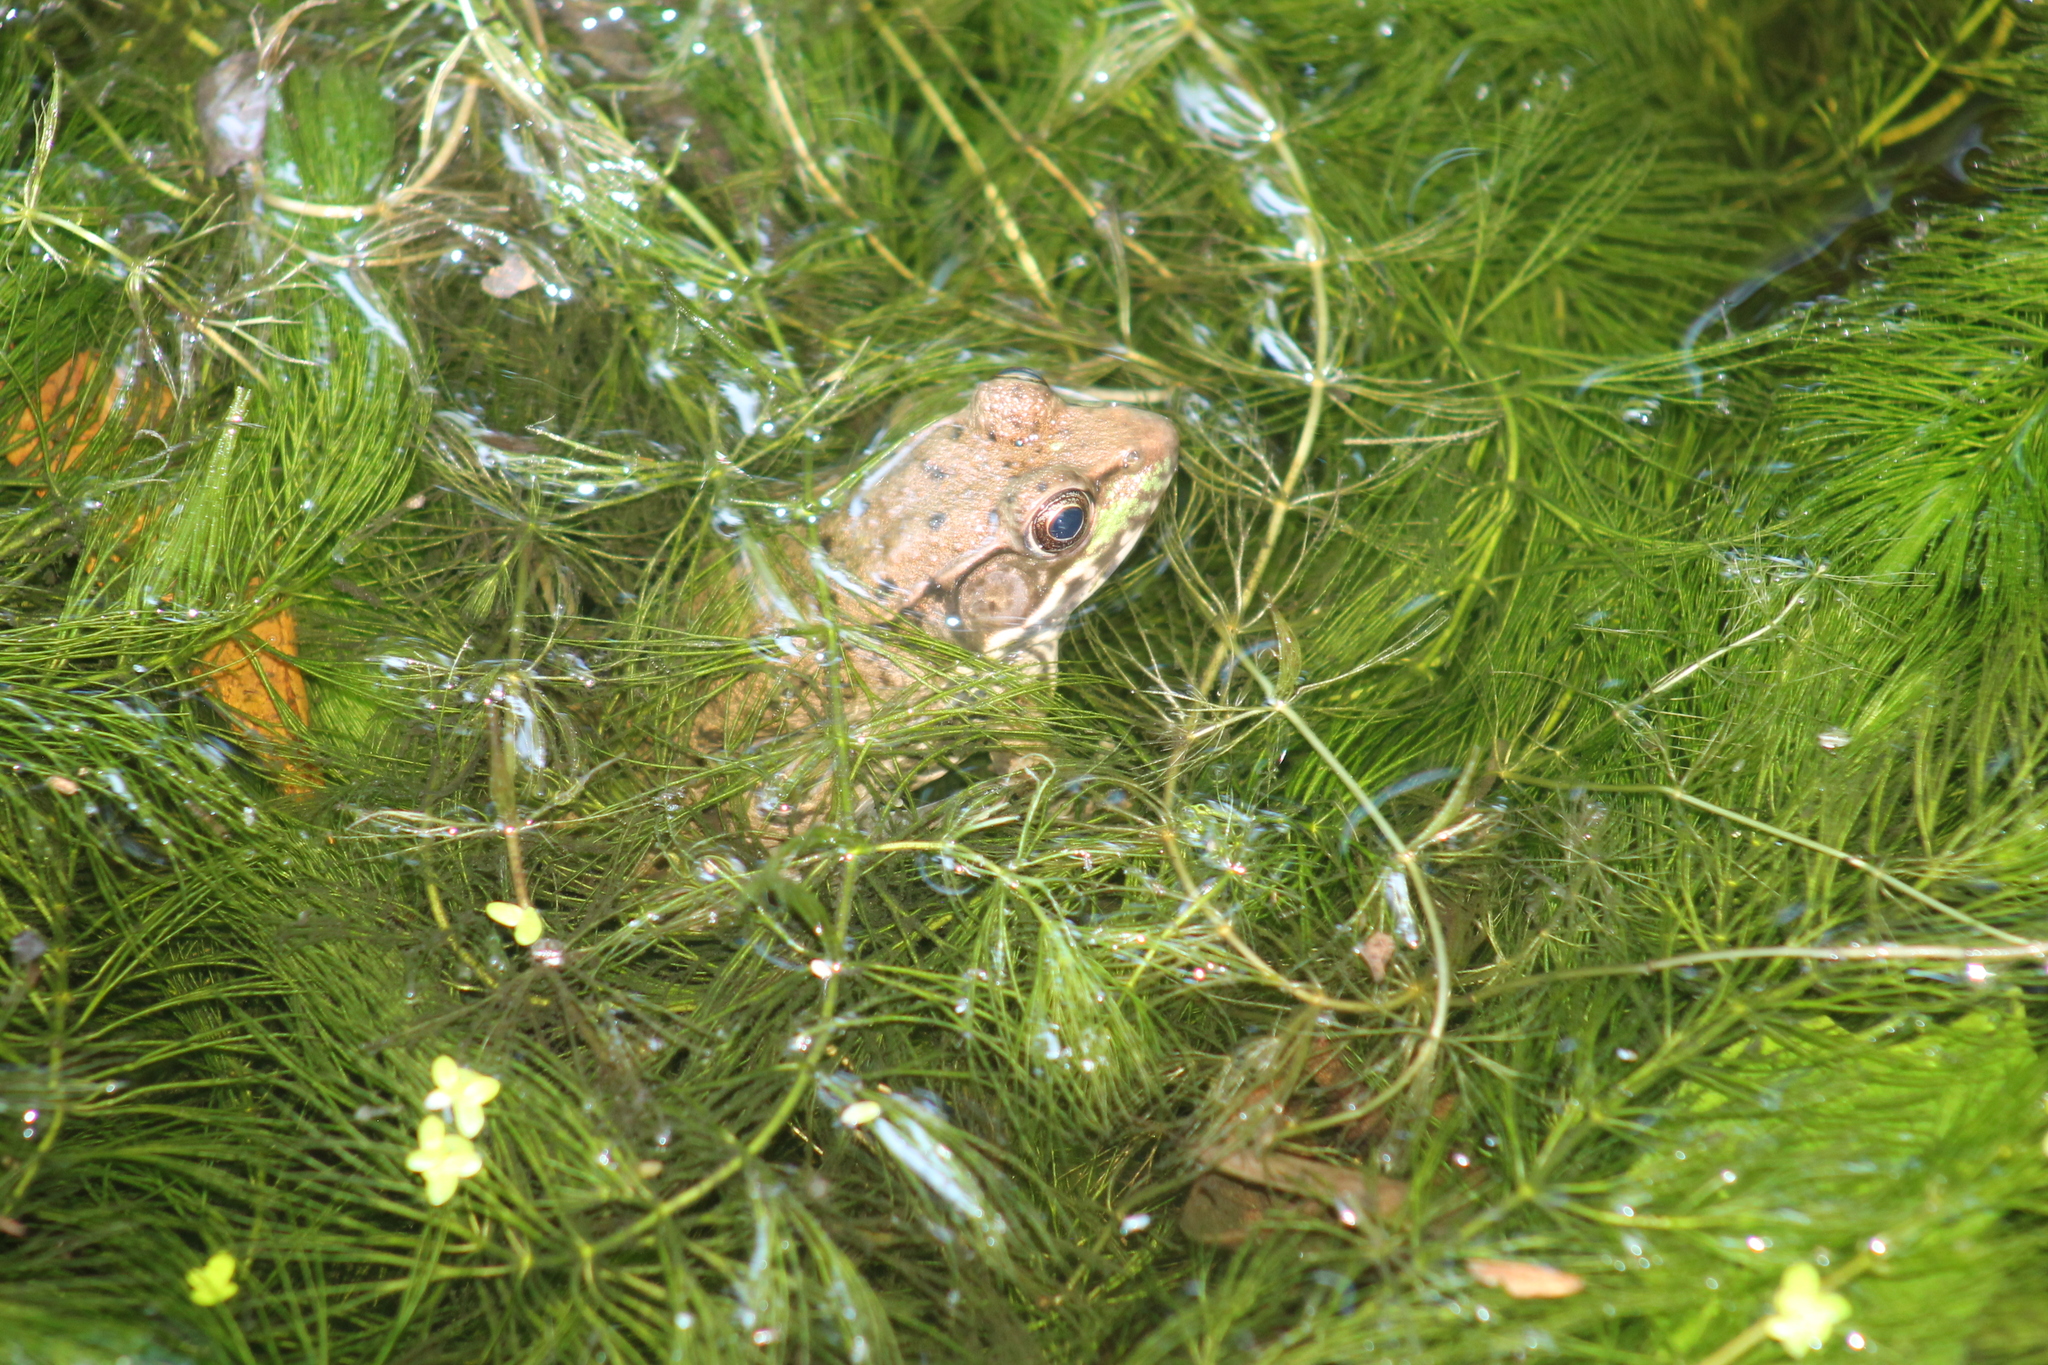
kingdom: Animalia
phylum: Chordata
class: Amphibia
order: Anura
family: Ranidae
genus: Lithobates
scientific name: Lithobates clamitans
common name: Green frog
